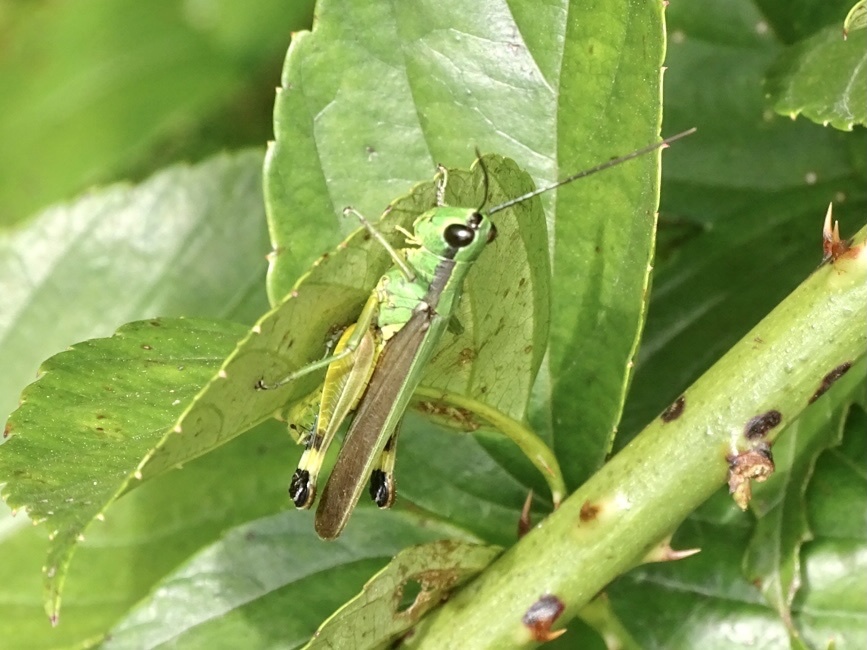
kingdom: Animalia
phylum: Arthropoda
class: Insecta
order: Orthoptera
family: Acrididae
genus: Ceracris
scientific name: Ceracris nigricornis
